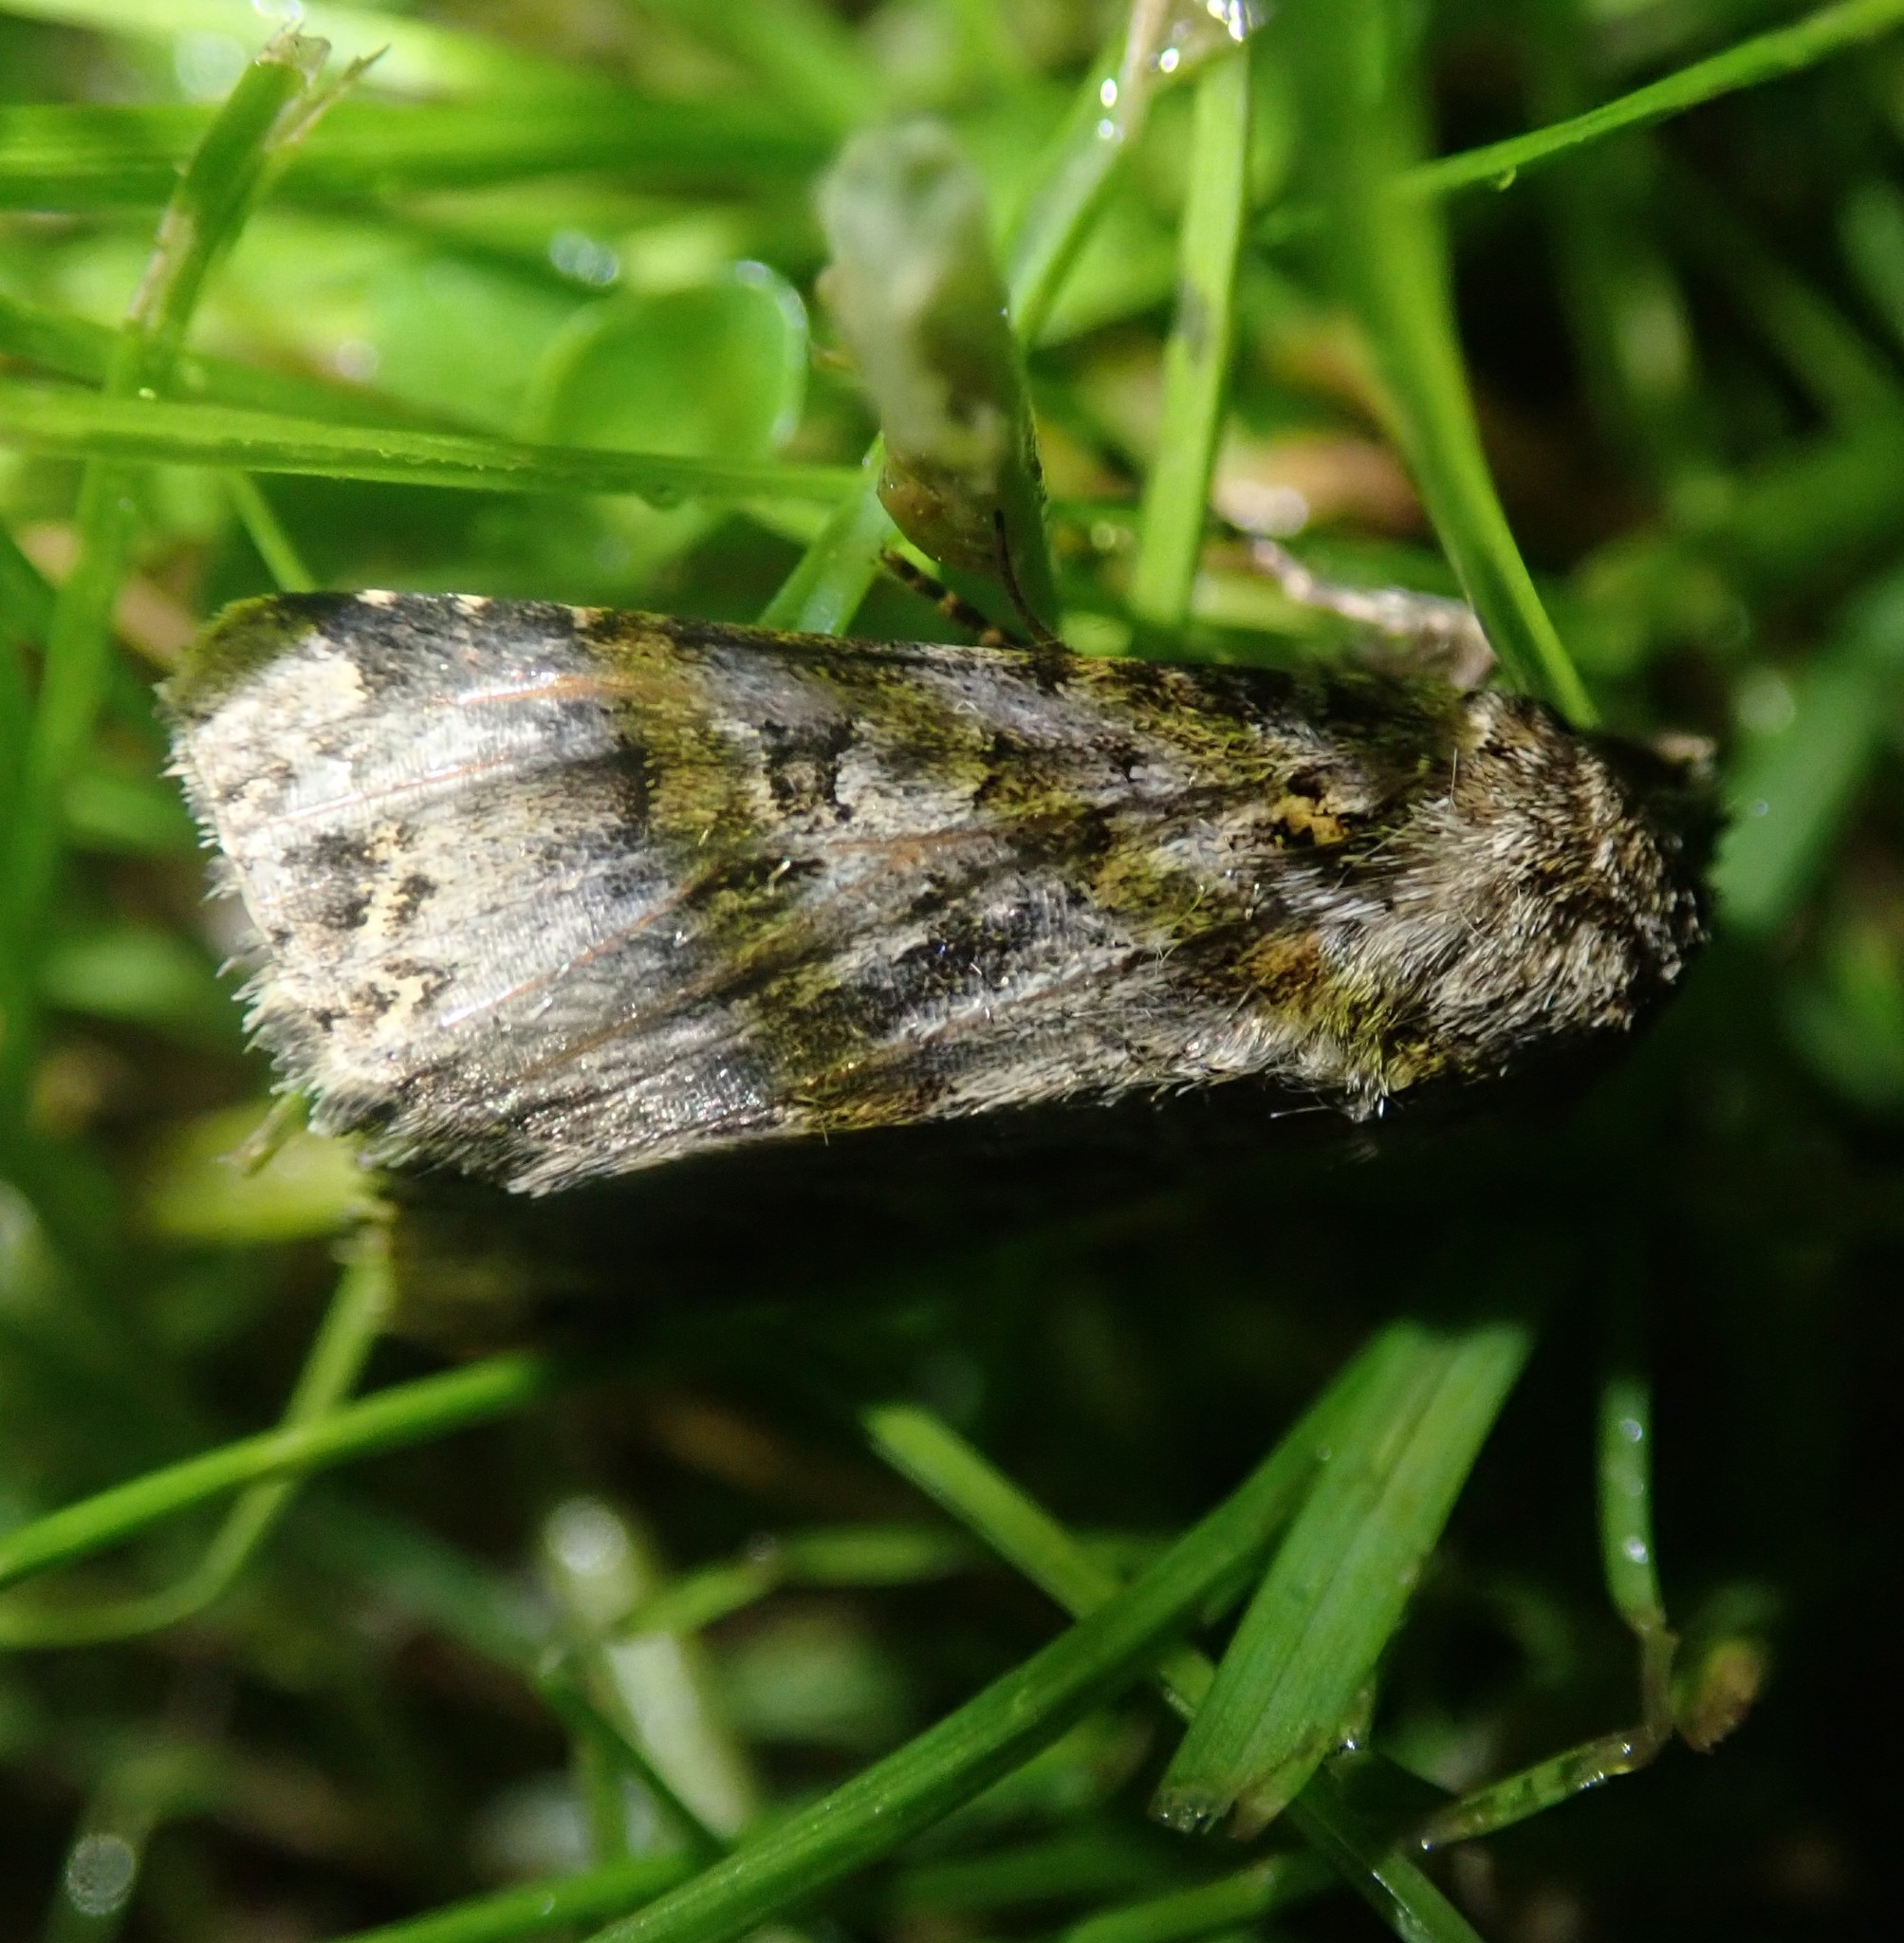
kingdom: Animalia
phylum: Arthropoda
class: Insecta
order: Lepidoptera
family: Noctuidae
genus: Hada
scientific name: Hada plebeja
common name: Shears
